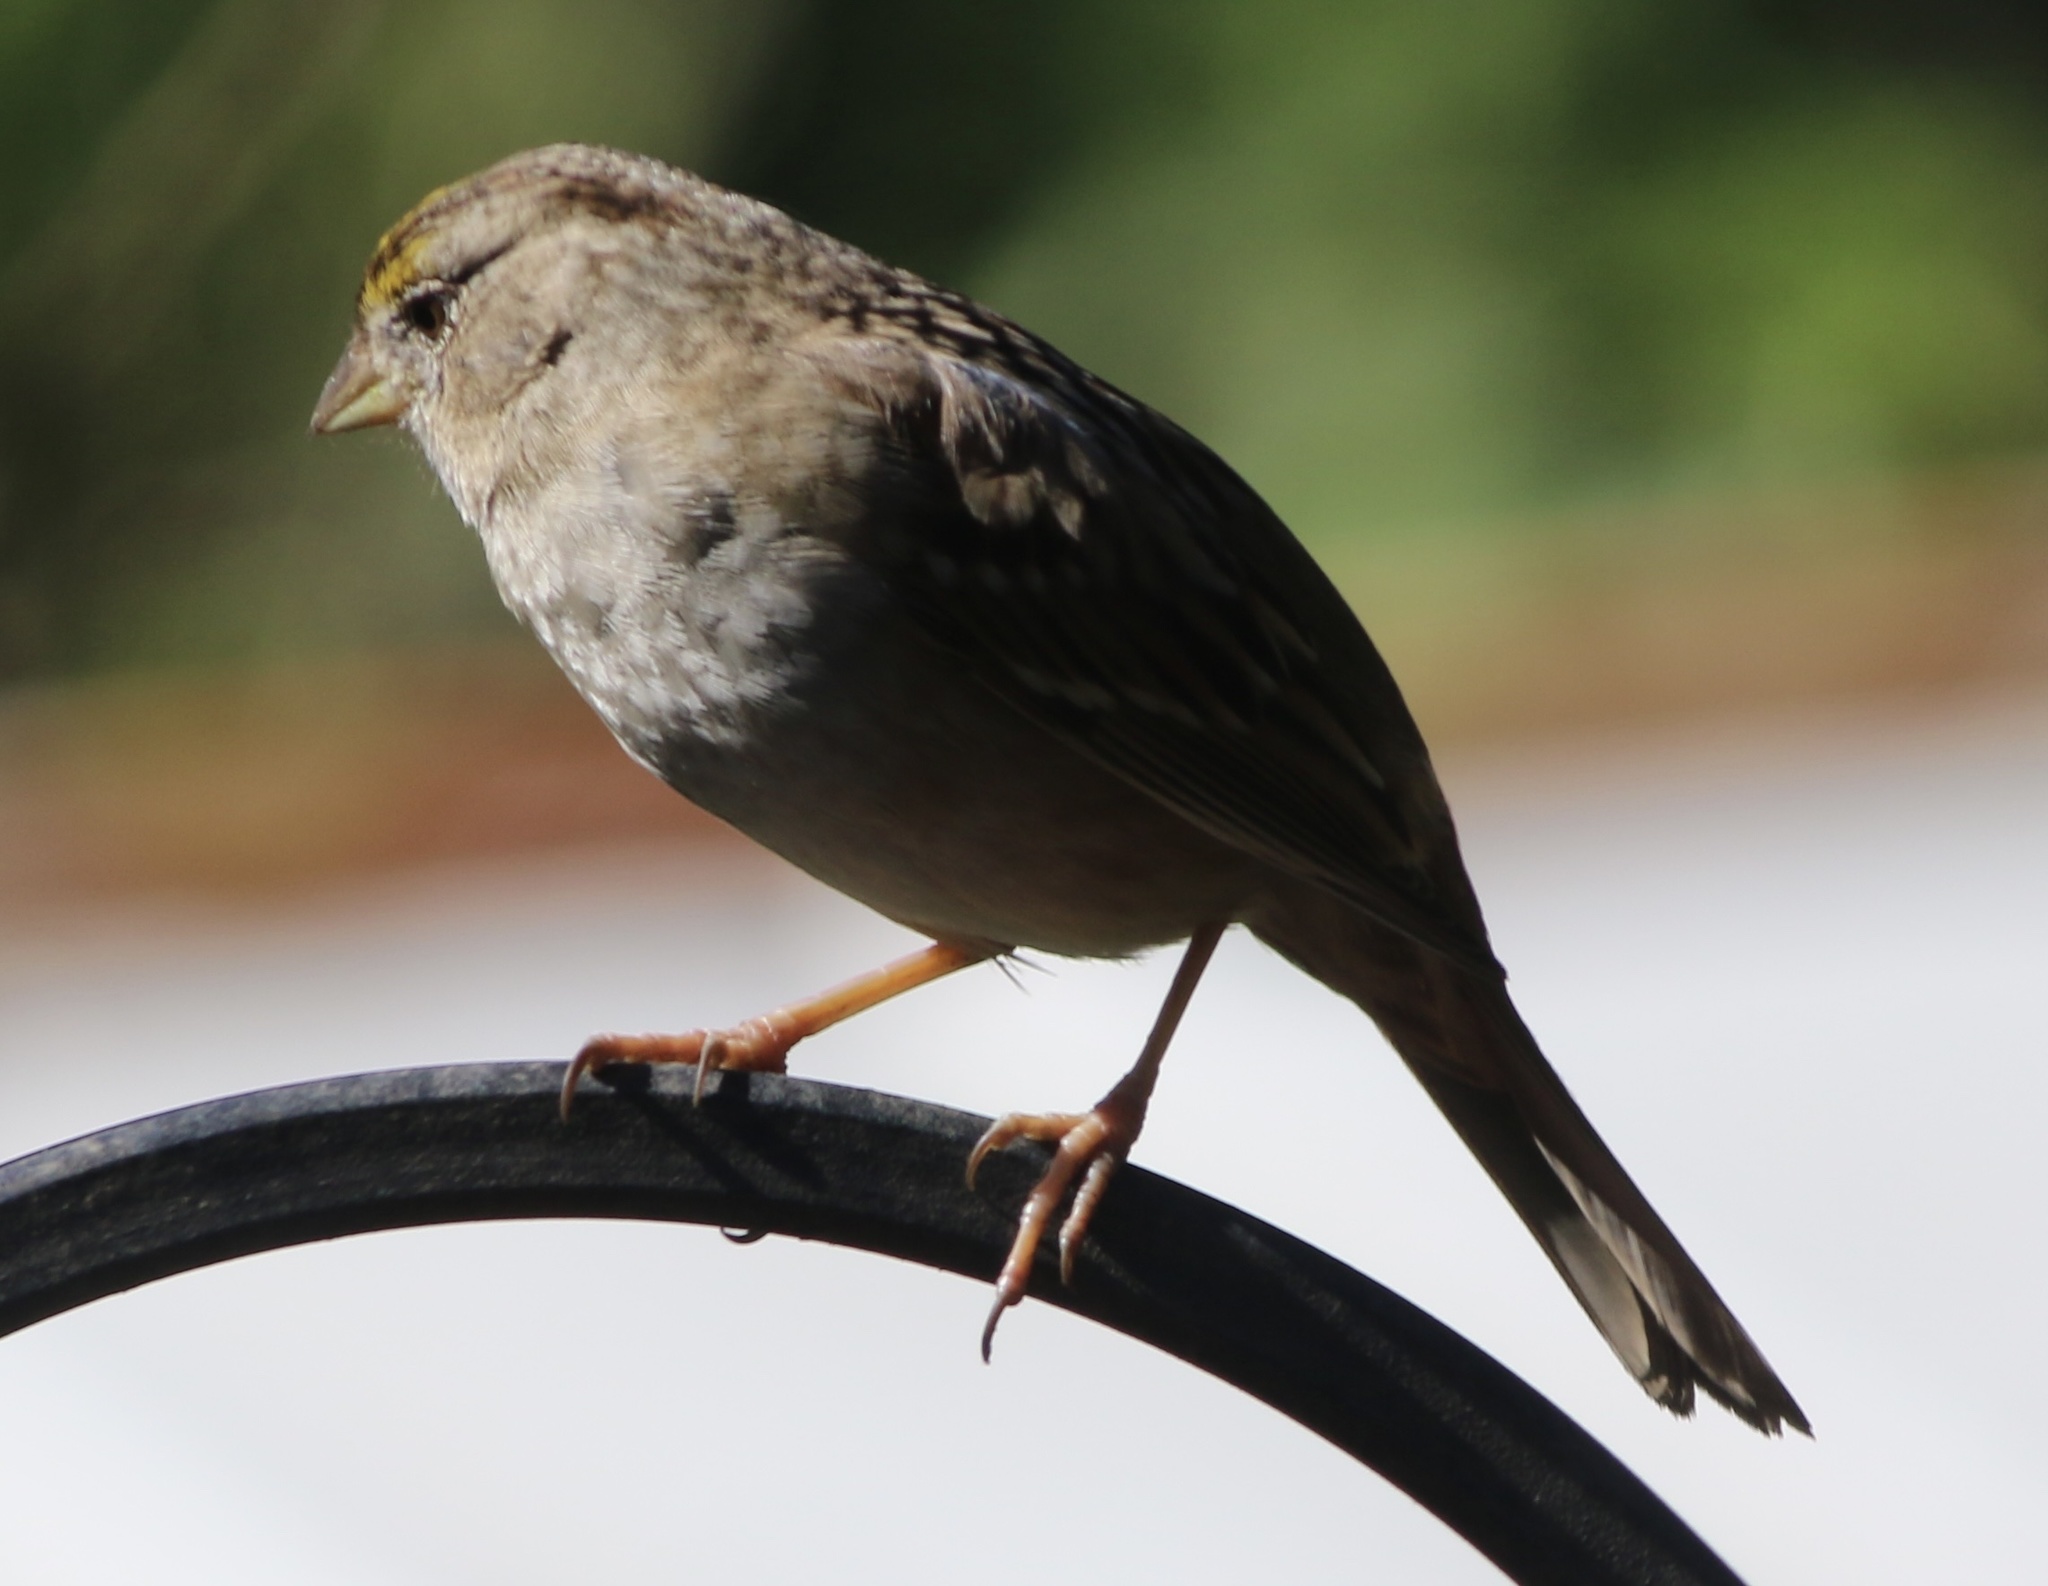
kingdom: Animalia
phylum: Chordata
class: Aves
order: Passeriformes
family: Passerellidae
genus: Zonotrichia
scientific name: Zonotrichia atricapilla
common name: Golden-crowned sparrow
